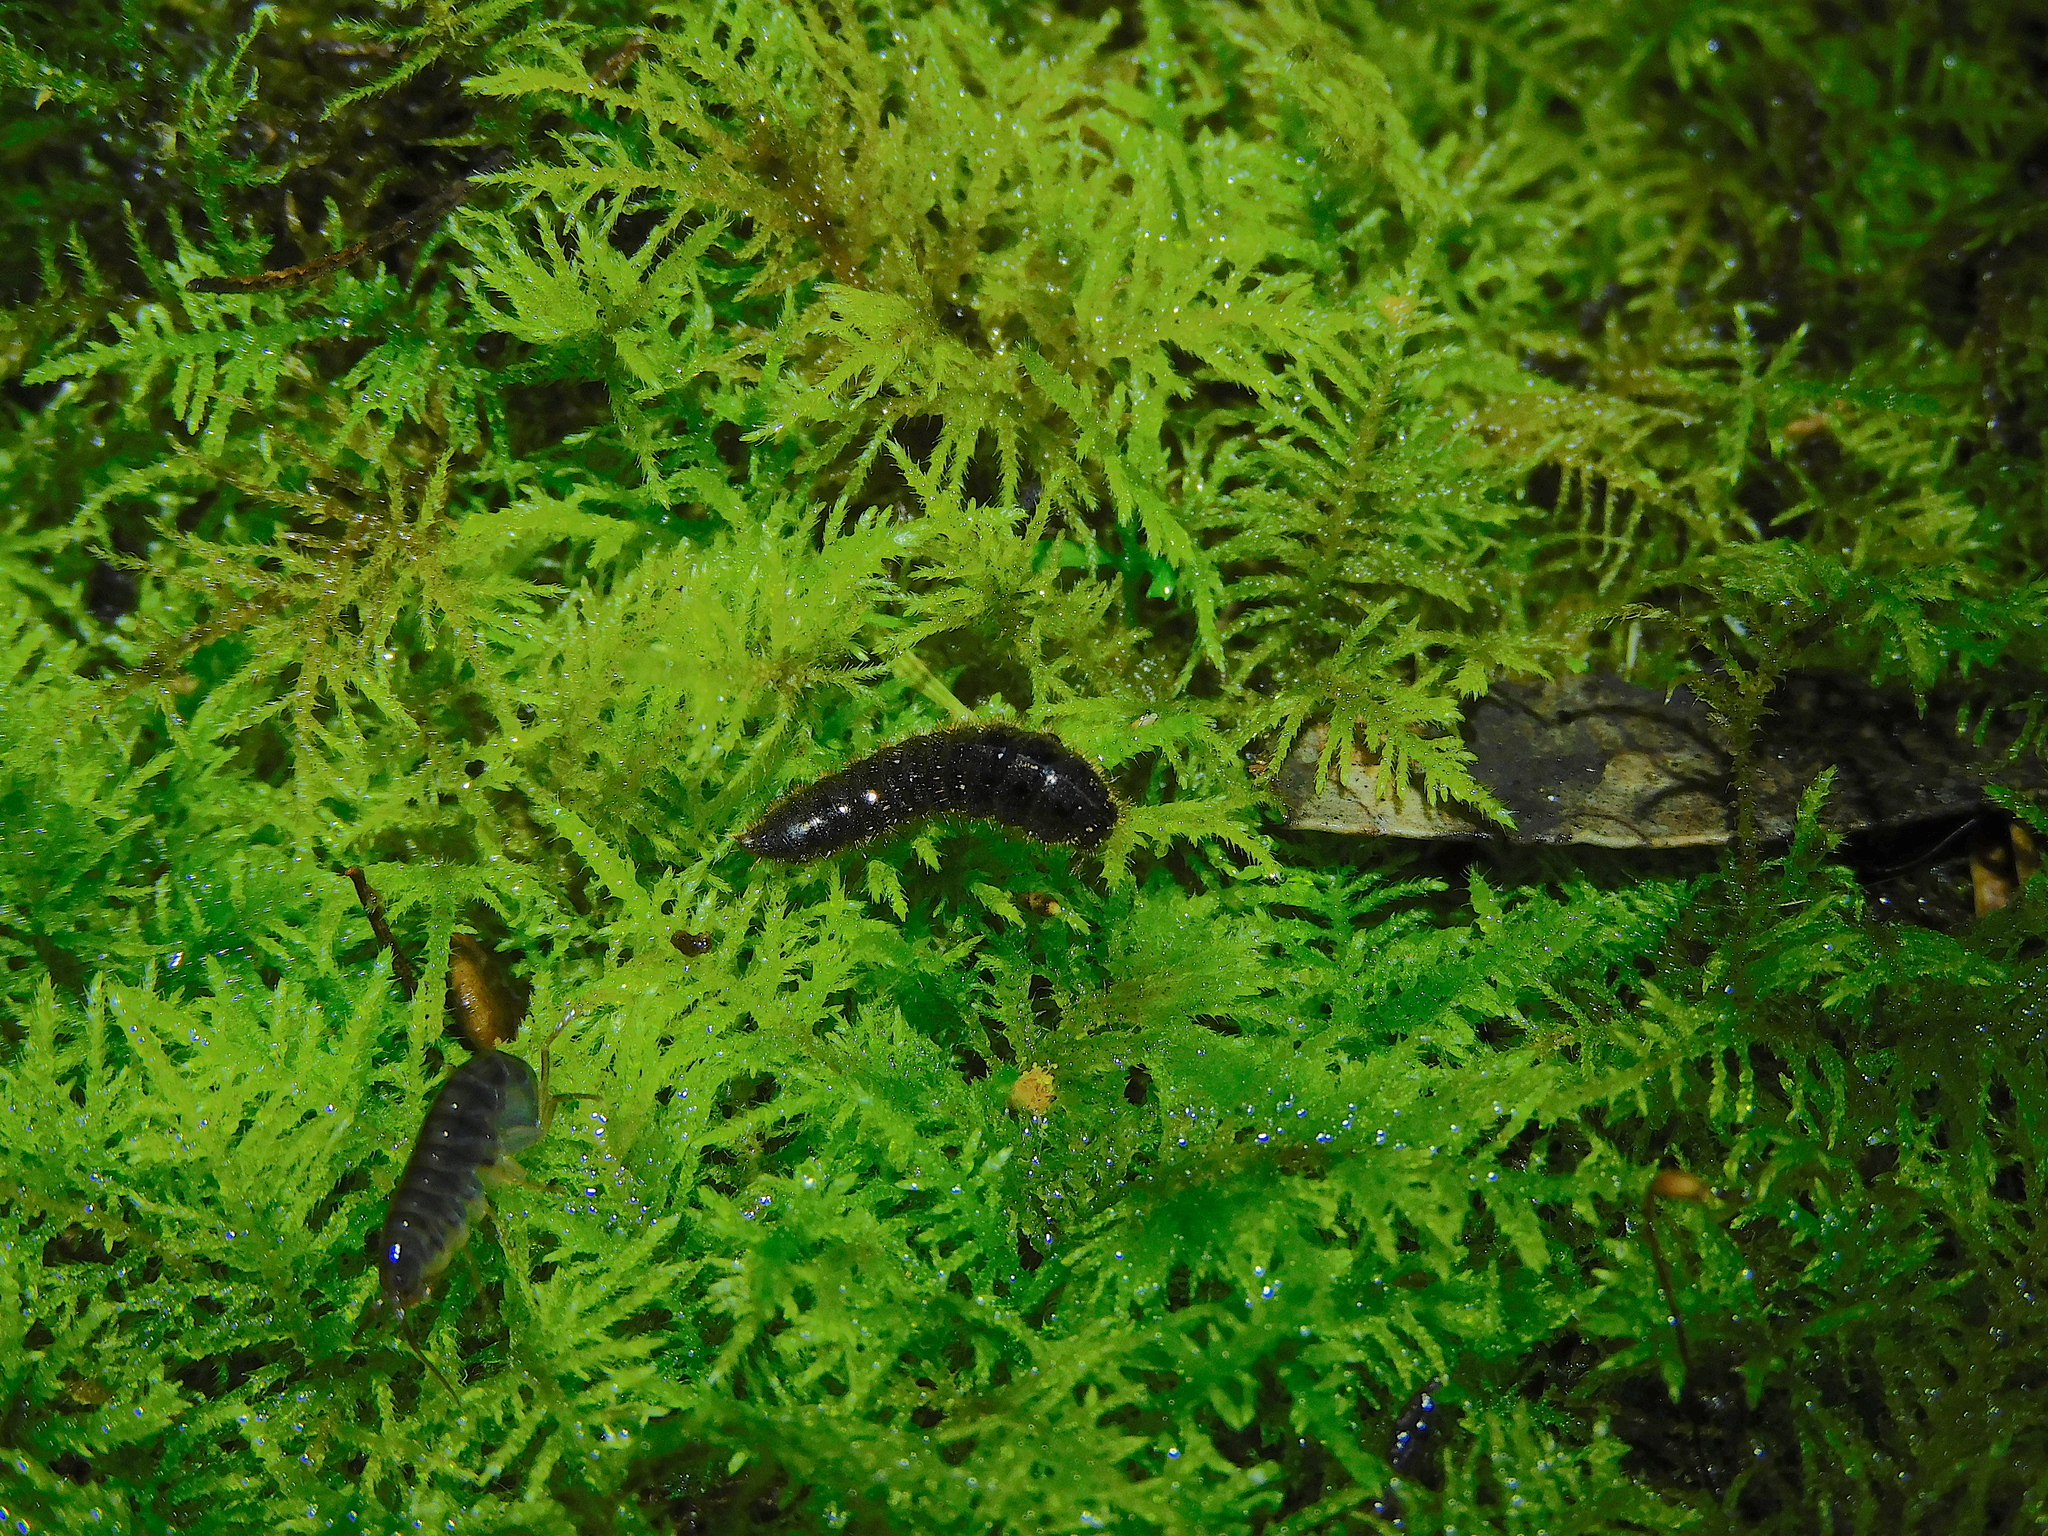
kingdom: Animalia
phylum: Arthropoda
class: Insecta
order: Coleoptera
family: Tenebrionidae
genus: Ecnolagria
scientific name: Ecnolagria
